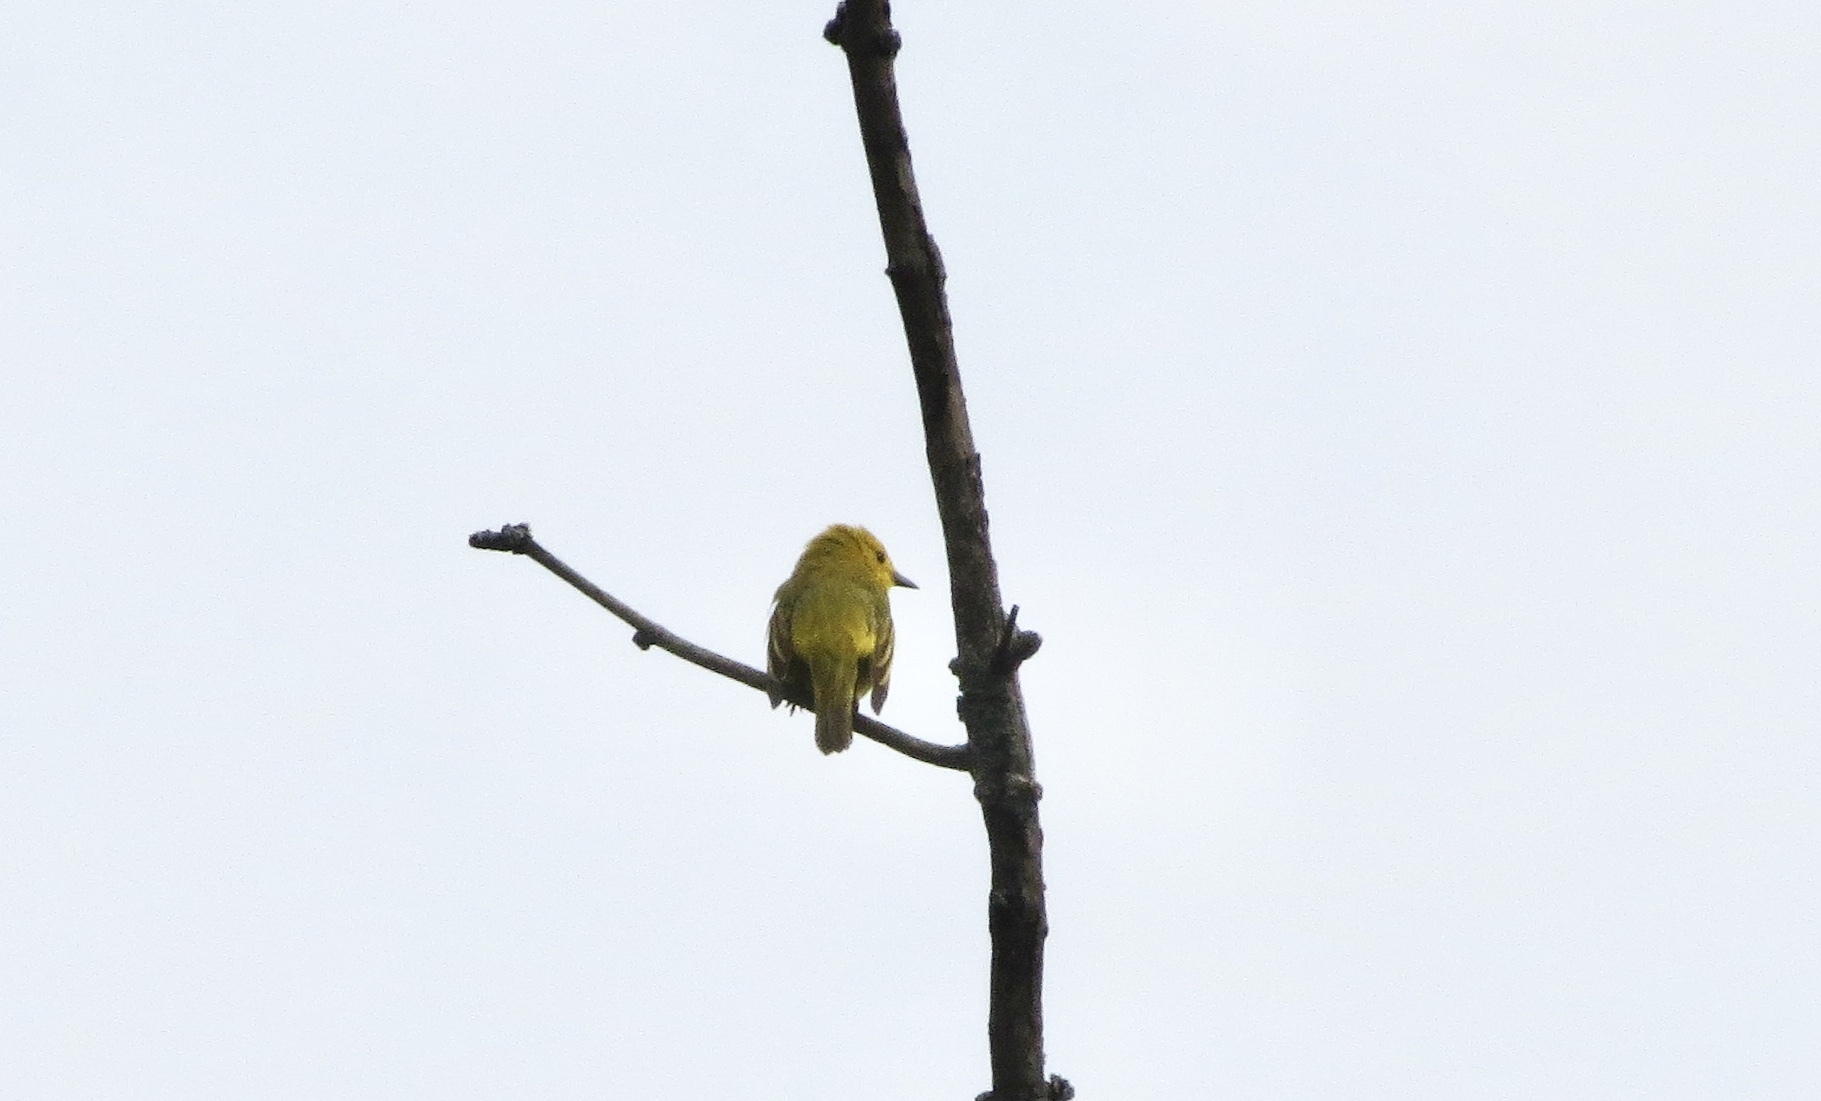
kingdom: Animalia
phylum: Chordata
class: Aves
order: Passeriformes
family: Parulidae
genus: Setophaga
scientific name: Setophaga petechia
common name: Yellow warbler
